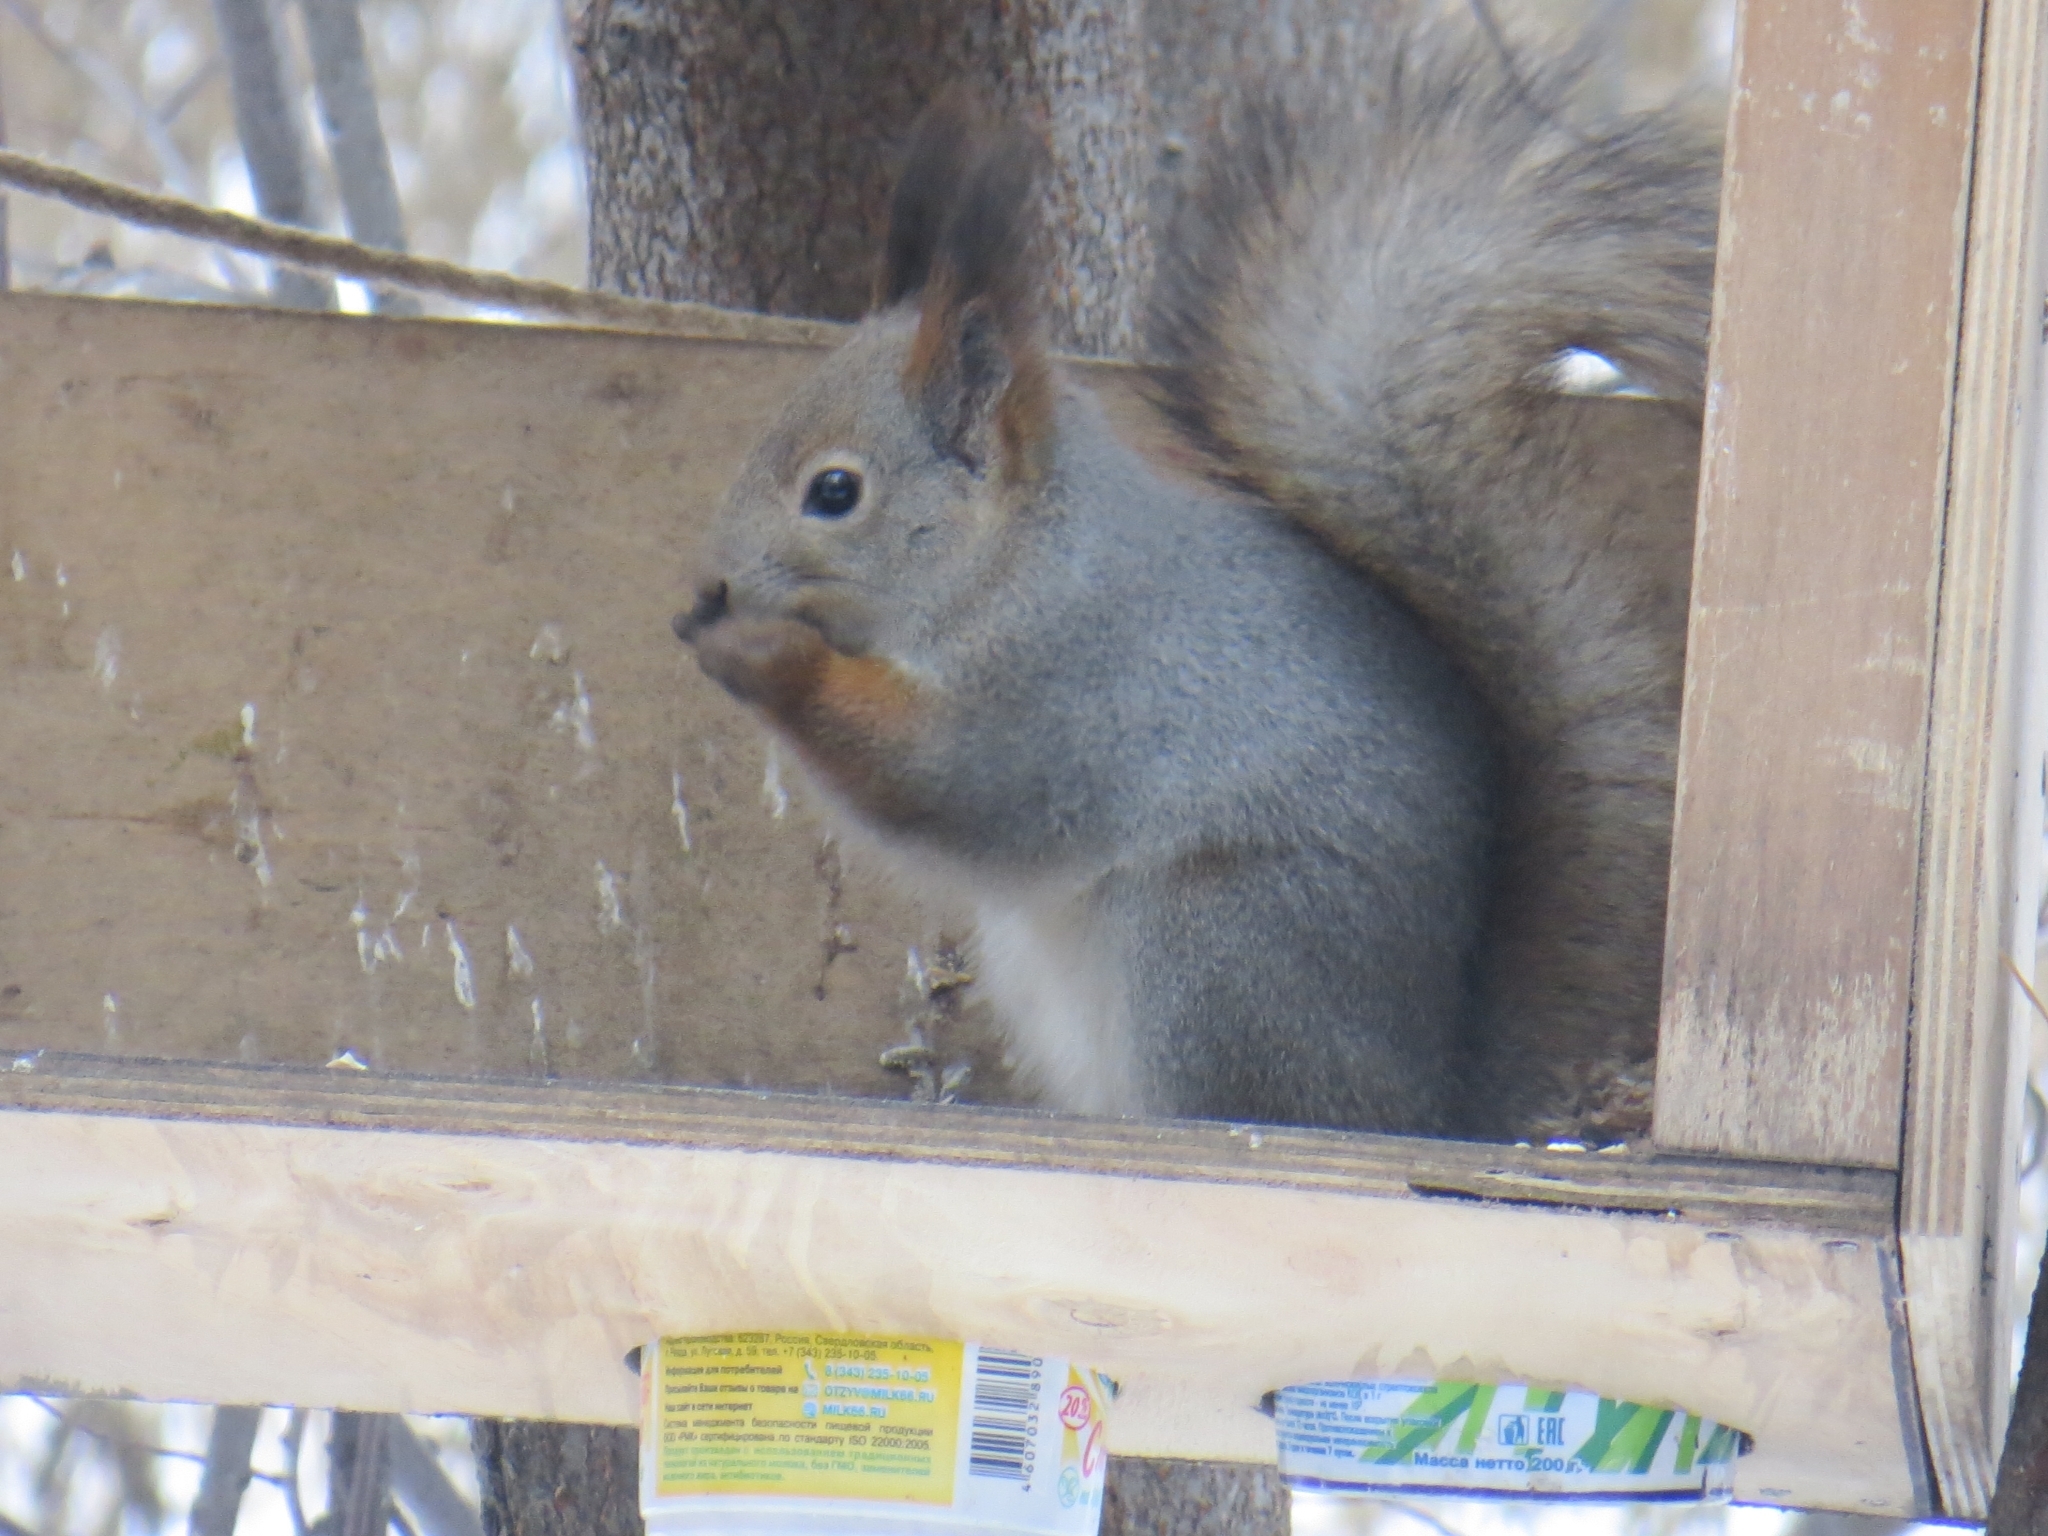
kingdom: Animalia
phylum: Chordata
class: Mammalia
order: Rodentia
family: Sciuridae
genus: Sciurus
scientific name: Sciurus vulgaris
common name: Eurasian red squirrel
